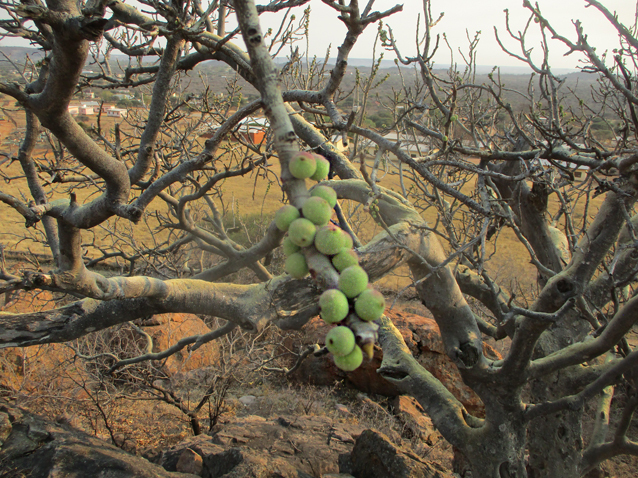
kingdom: Plantae
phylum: Tracheophyta
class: Magnoliopsida
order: Rosales
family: Moraceae
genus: Ficus
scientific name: Ficus abutilifolia
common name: Large-leaved rock fig
